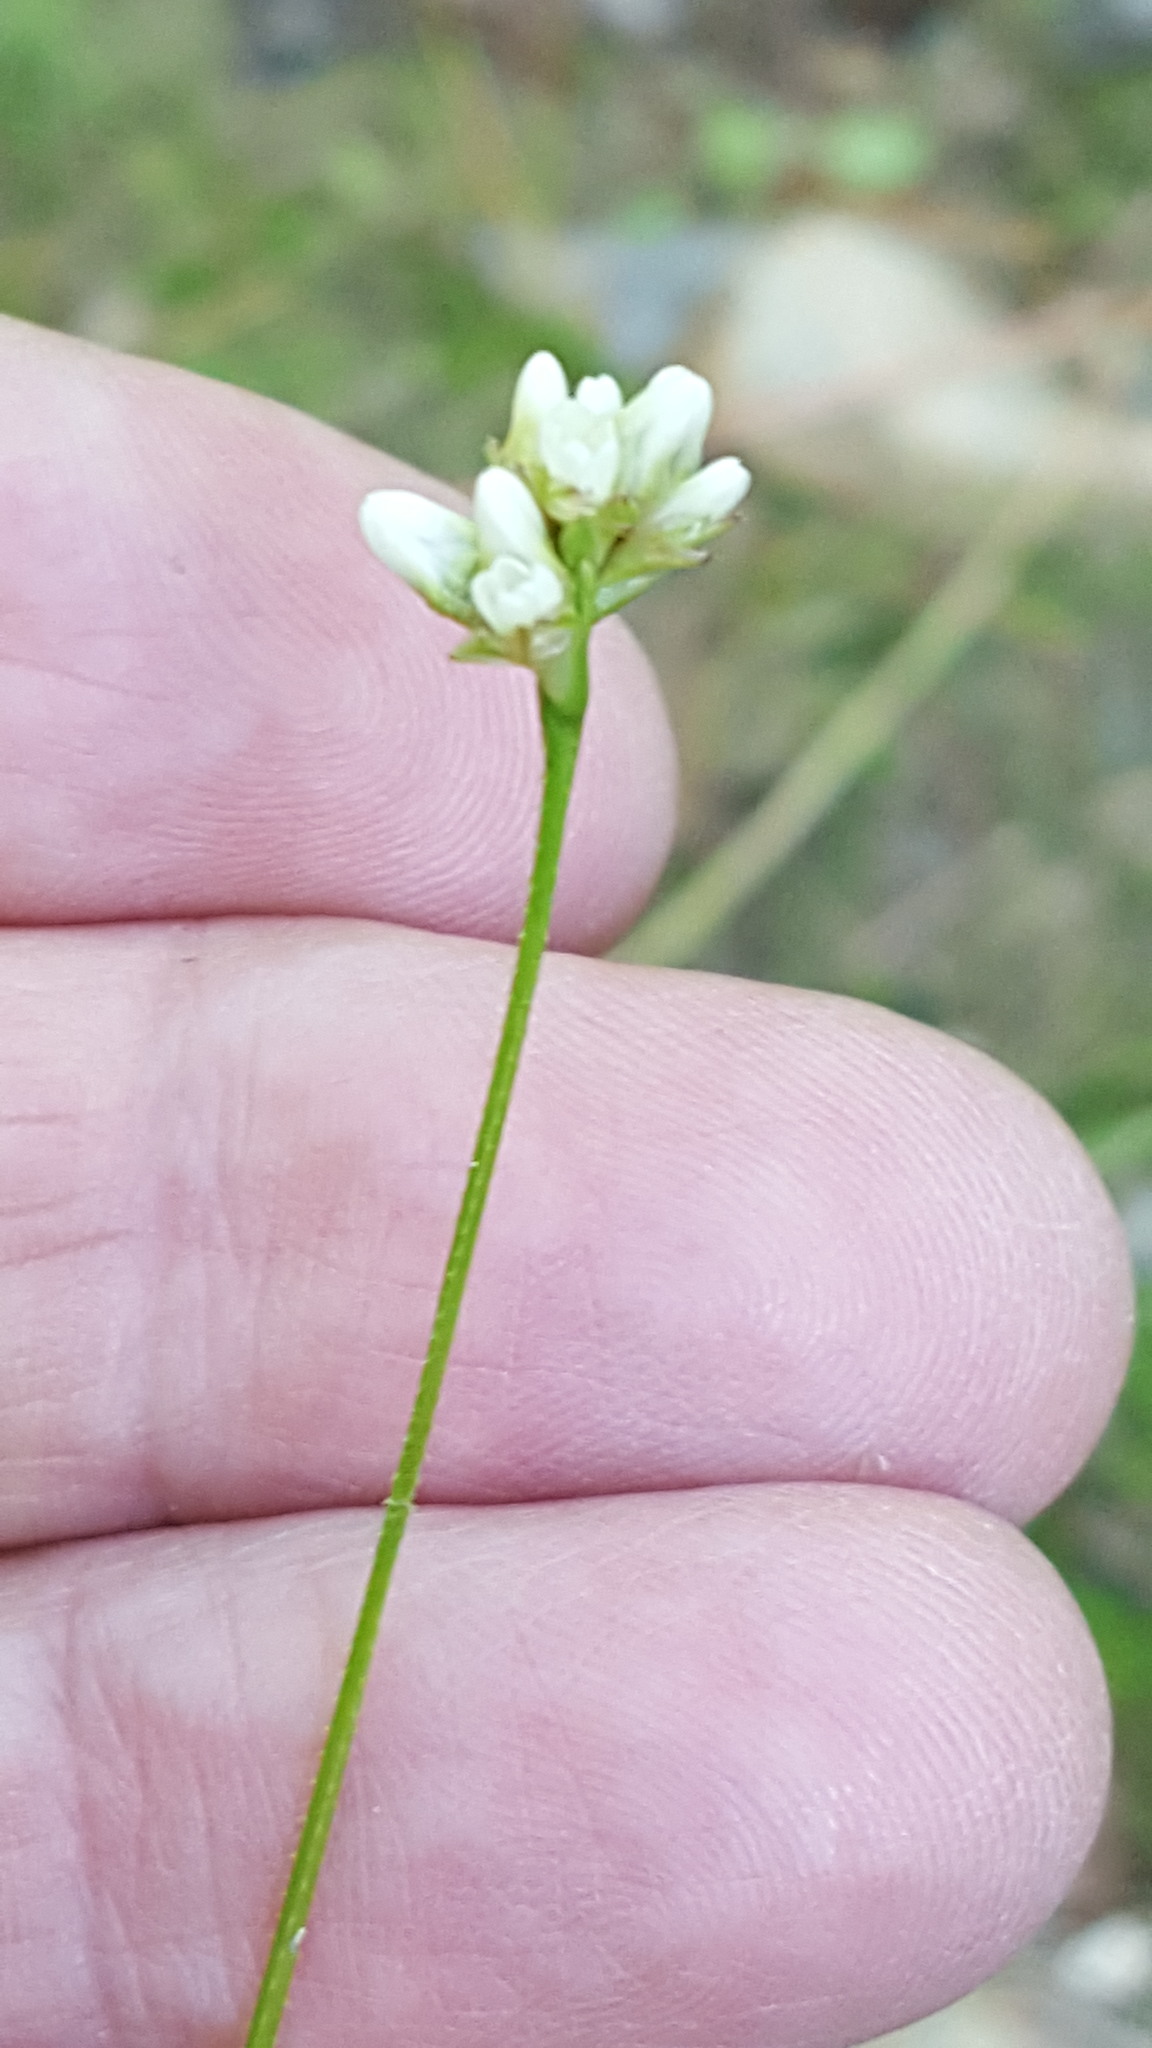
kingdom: Plantae
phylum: Tracheophyta
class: Magnoliopsida
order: Caryophyllales
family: Polygonaceae
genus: Persicaria
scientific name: Persicaria sagittata
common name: American tearthumb
